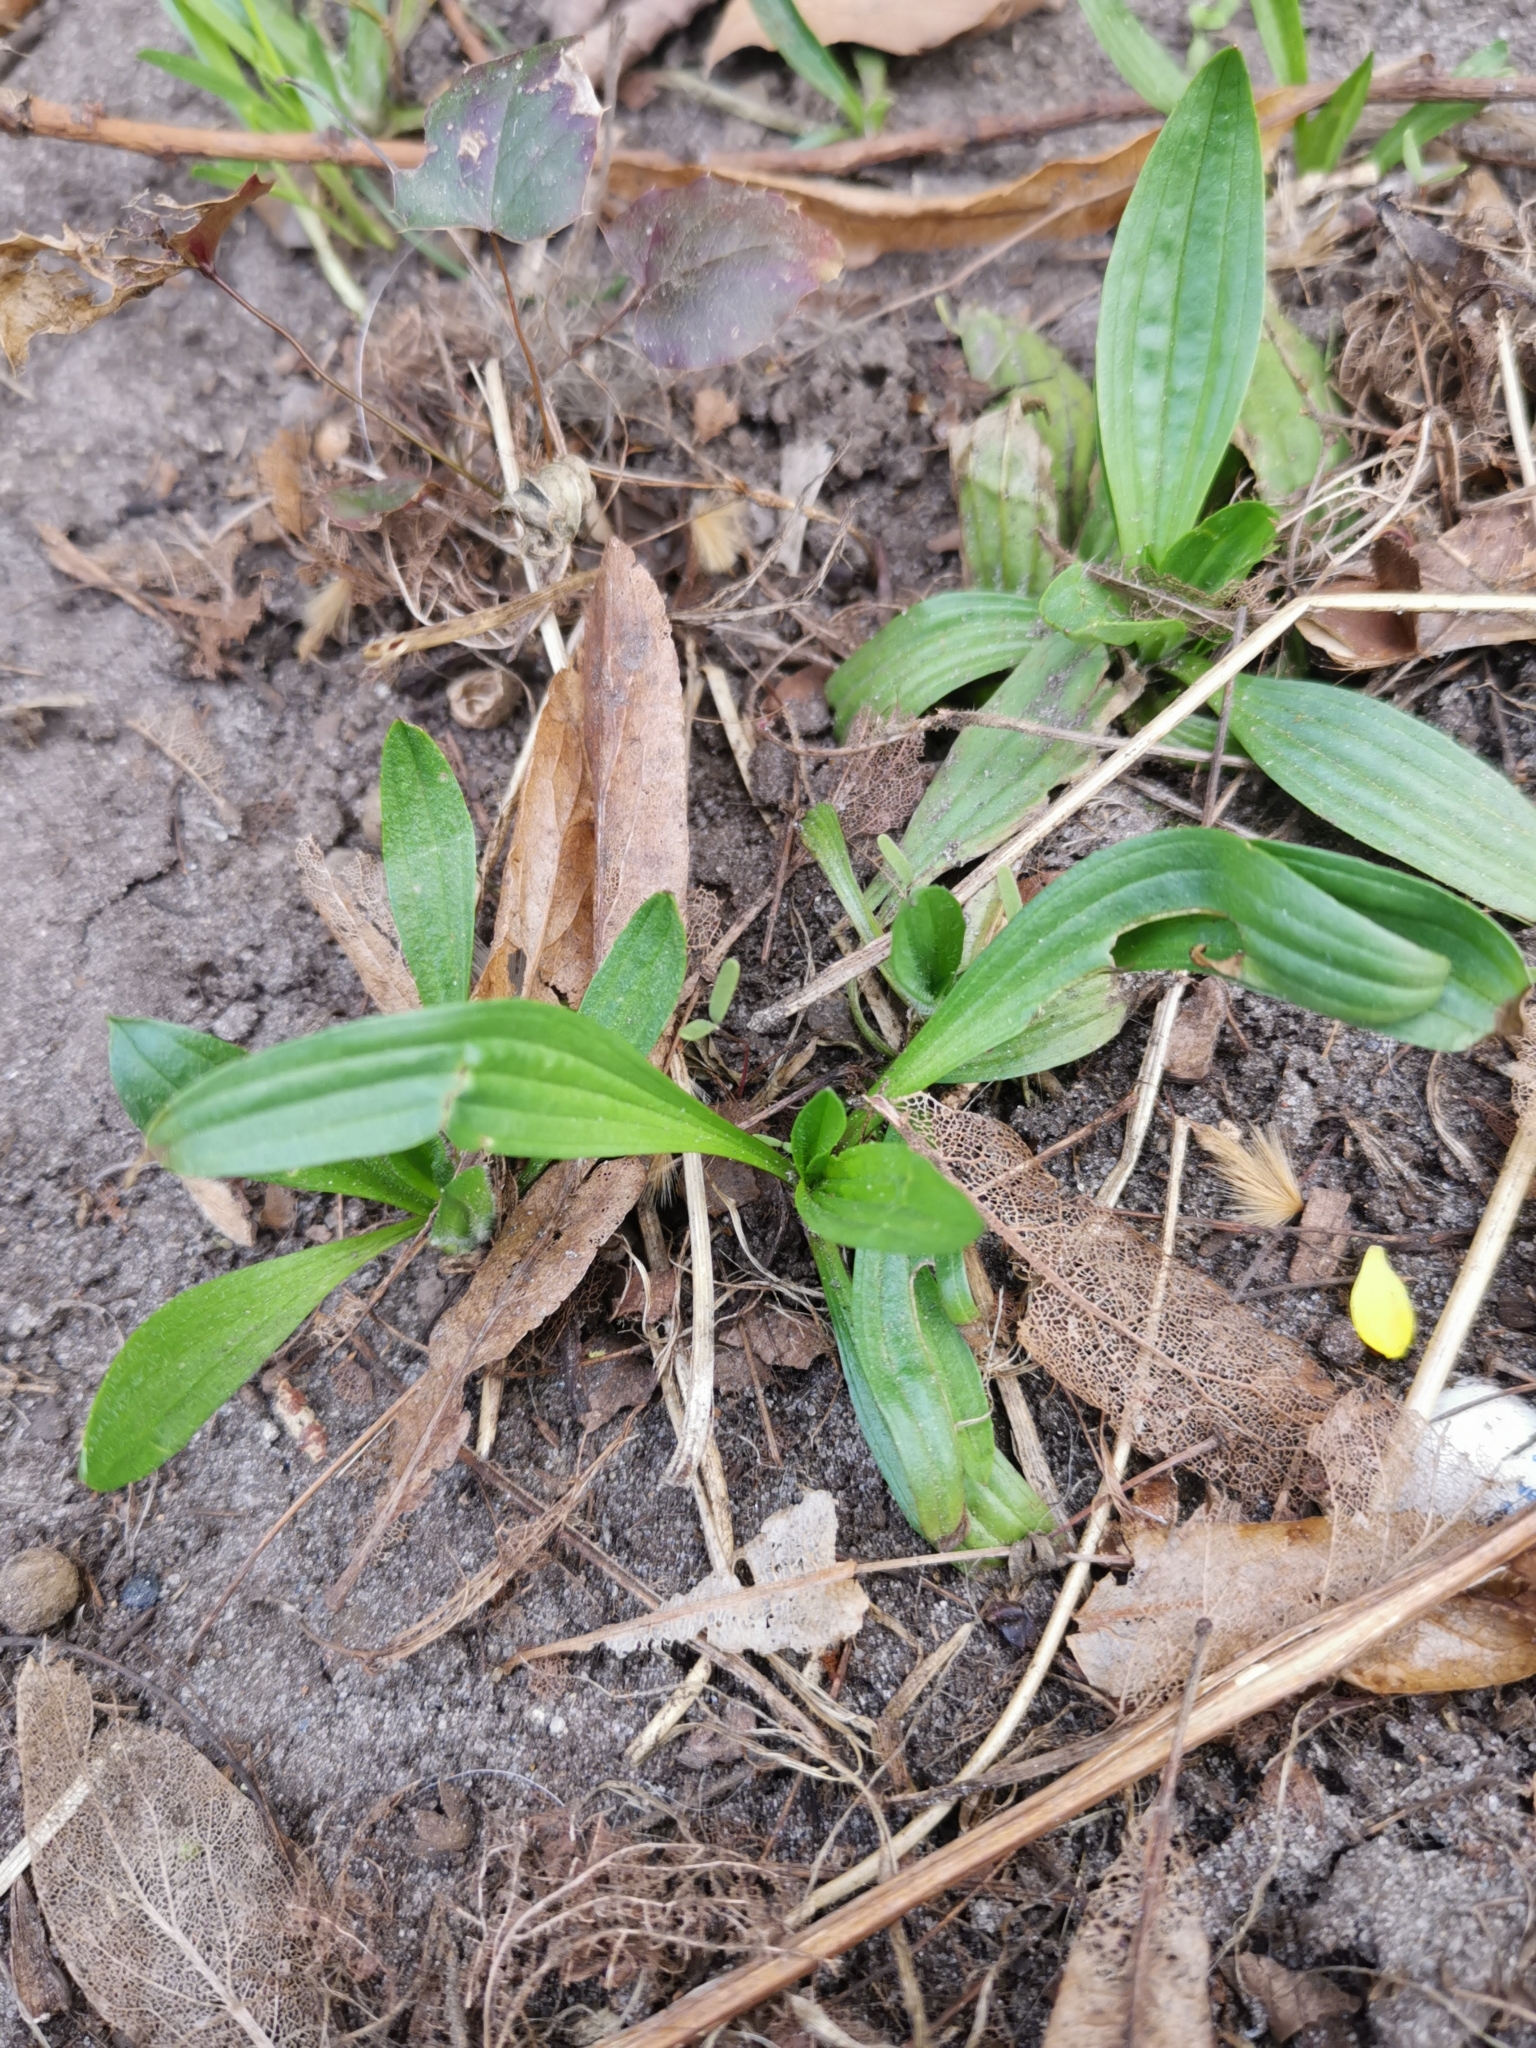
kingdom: Plantae
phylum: Tracheophyta
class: Magnoliopsida
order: Lamiales
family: Plantaginaceae
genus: Plantago
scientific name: Plantago lanceolata
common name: Ribwort plantain
